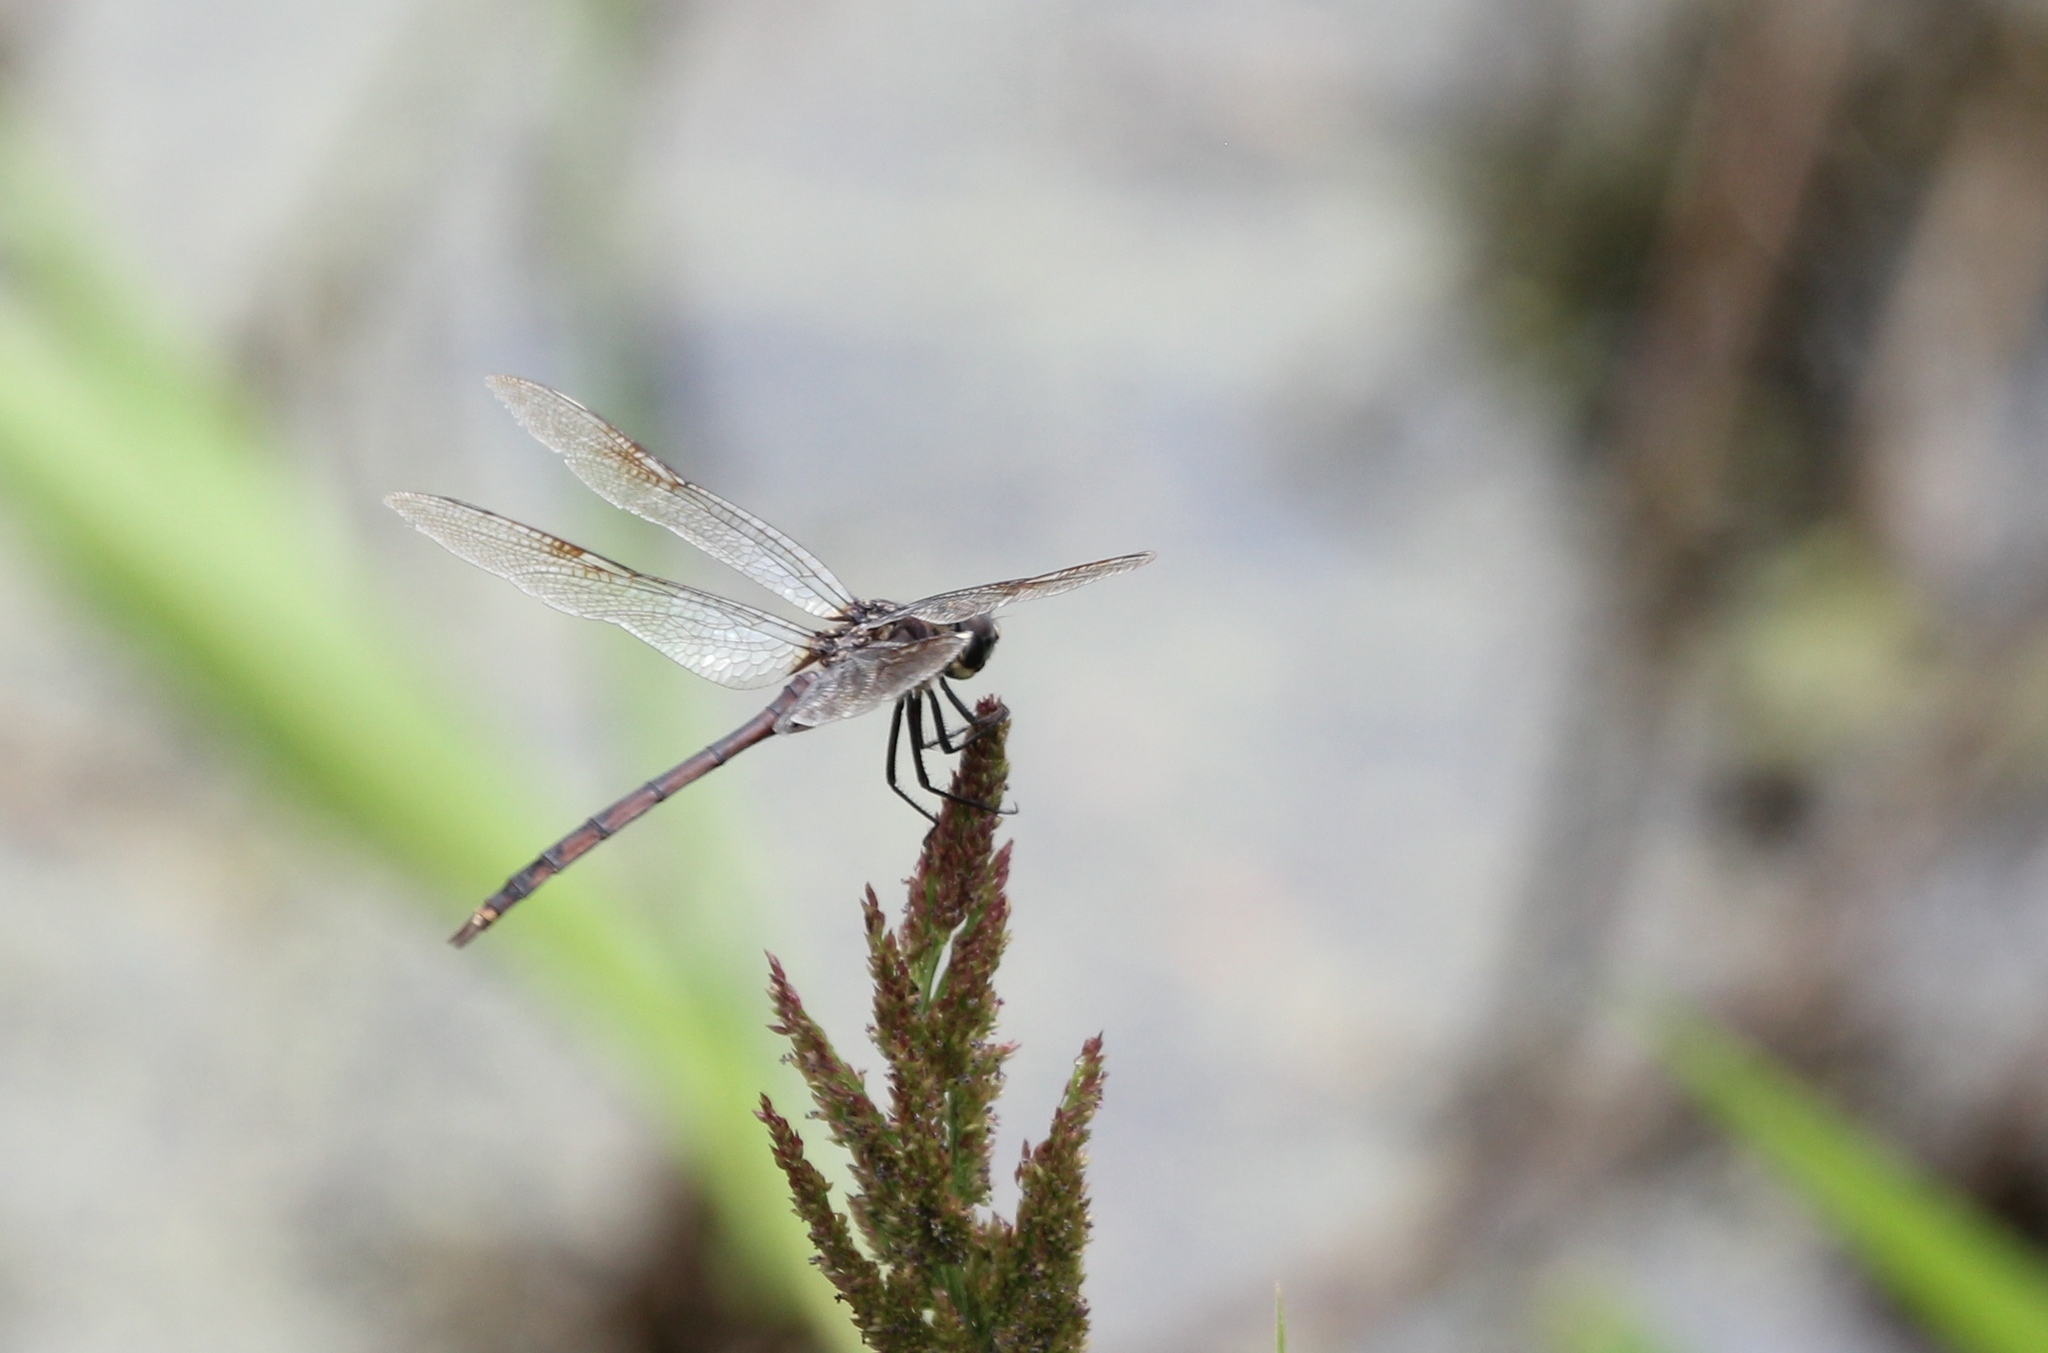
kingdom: Animalia
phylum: Arthropoda
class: Insecta
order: Odonata
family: Libellulidae
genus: Brachymesia
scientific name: Brachymesia gravida
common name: Four-spotted pennant
